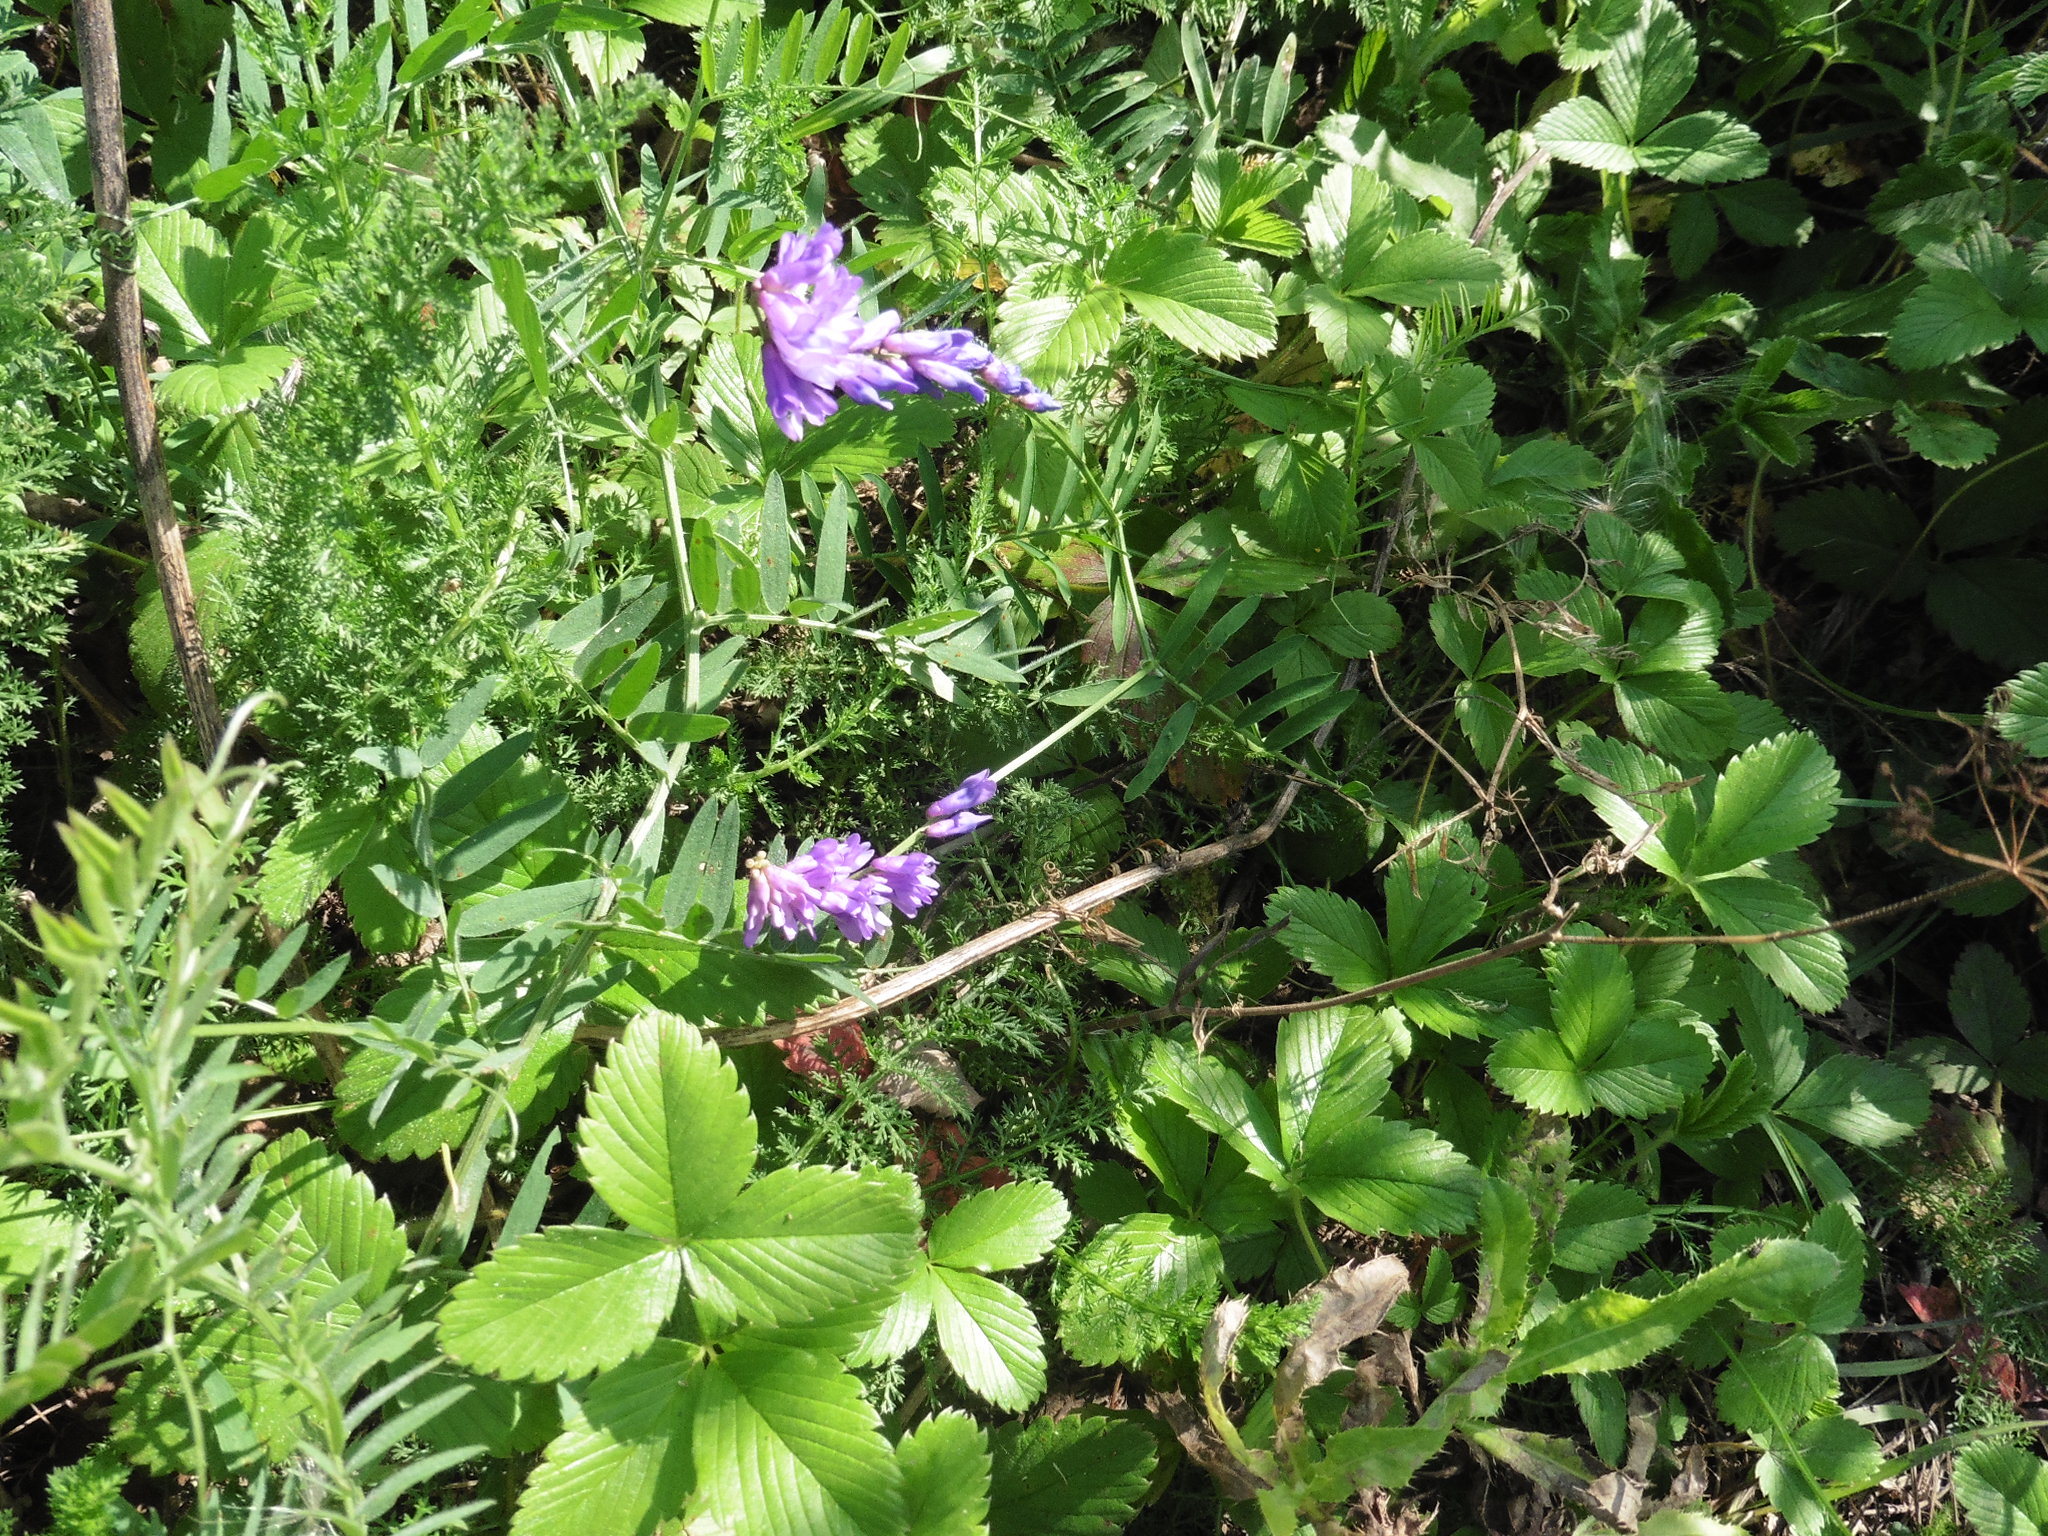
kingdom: Plantae
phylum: Tracheophyta
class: Magnoliopsida
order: Fabales
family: Fabaceae
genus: Vicia
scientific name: Vicia cracca
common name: Bird vetch
